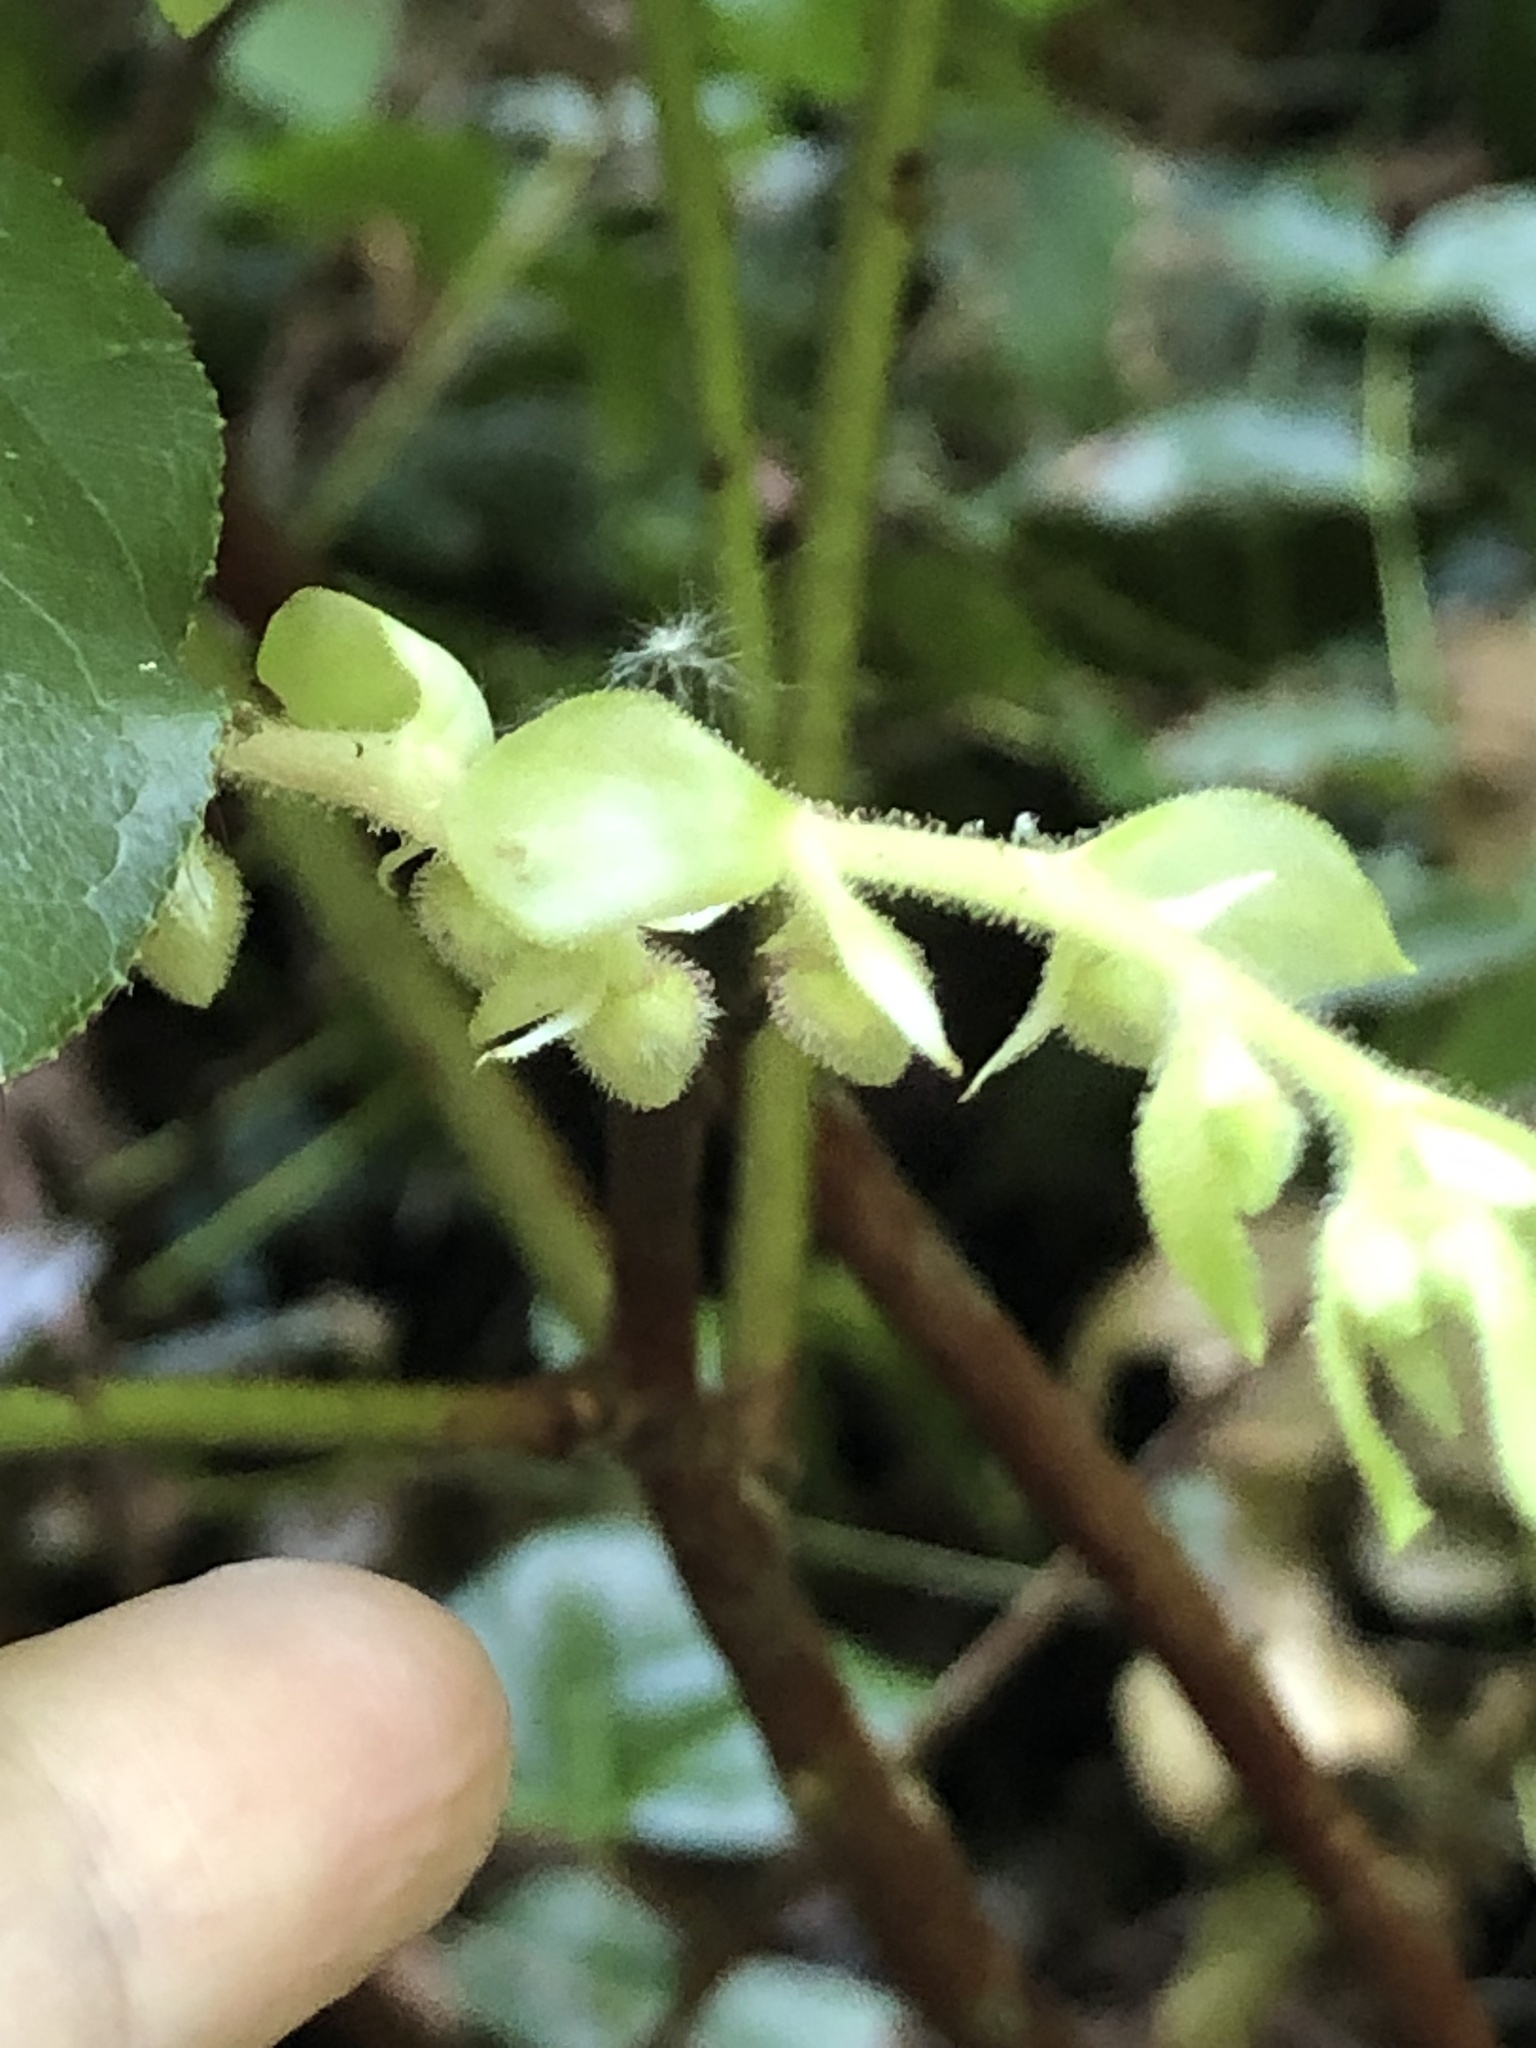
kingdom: Plantae
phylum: Tracheophyta
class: Magnoliopsida
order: Ericales
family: Ericaceae
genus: Gaultheria
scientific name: Gaultheria shallon
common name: Shallon
